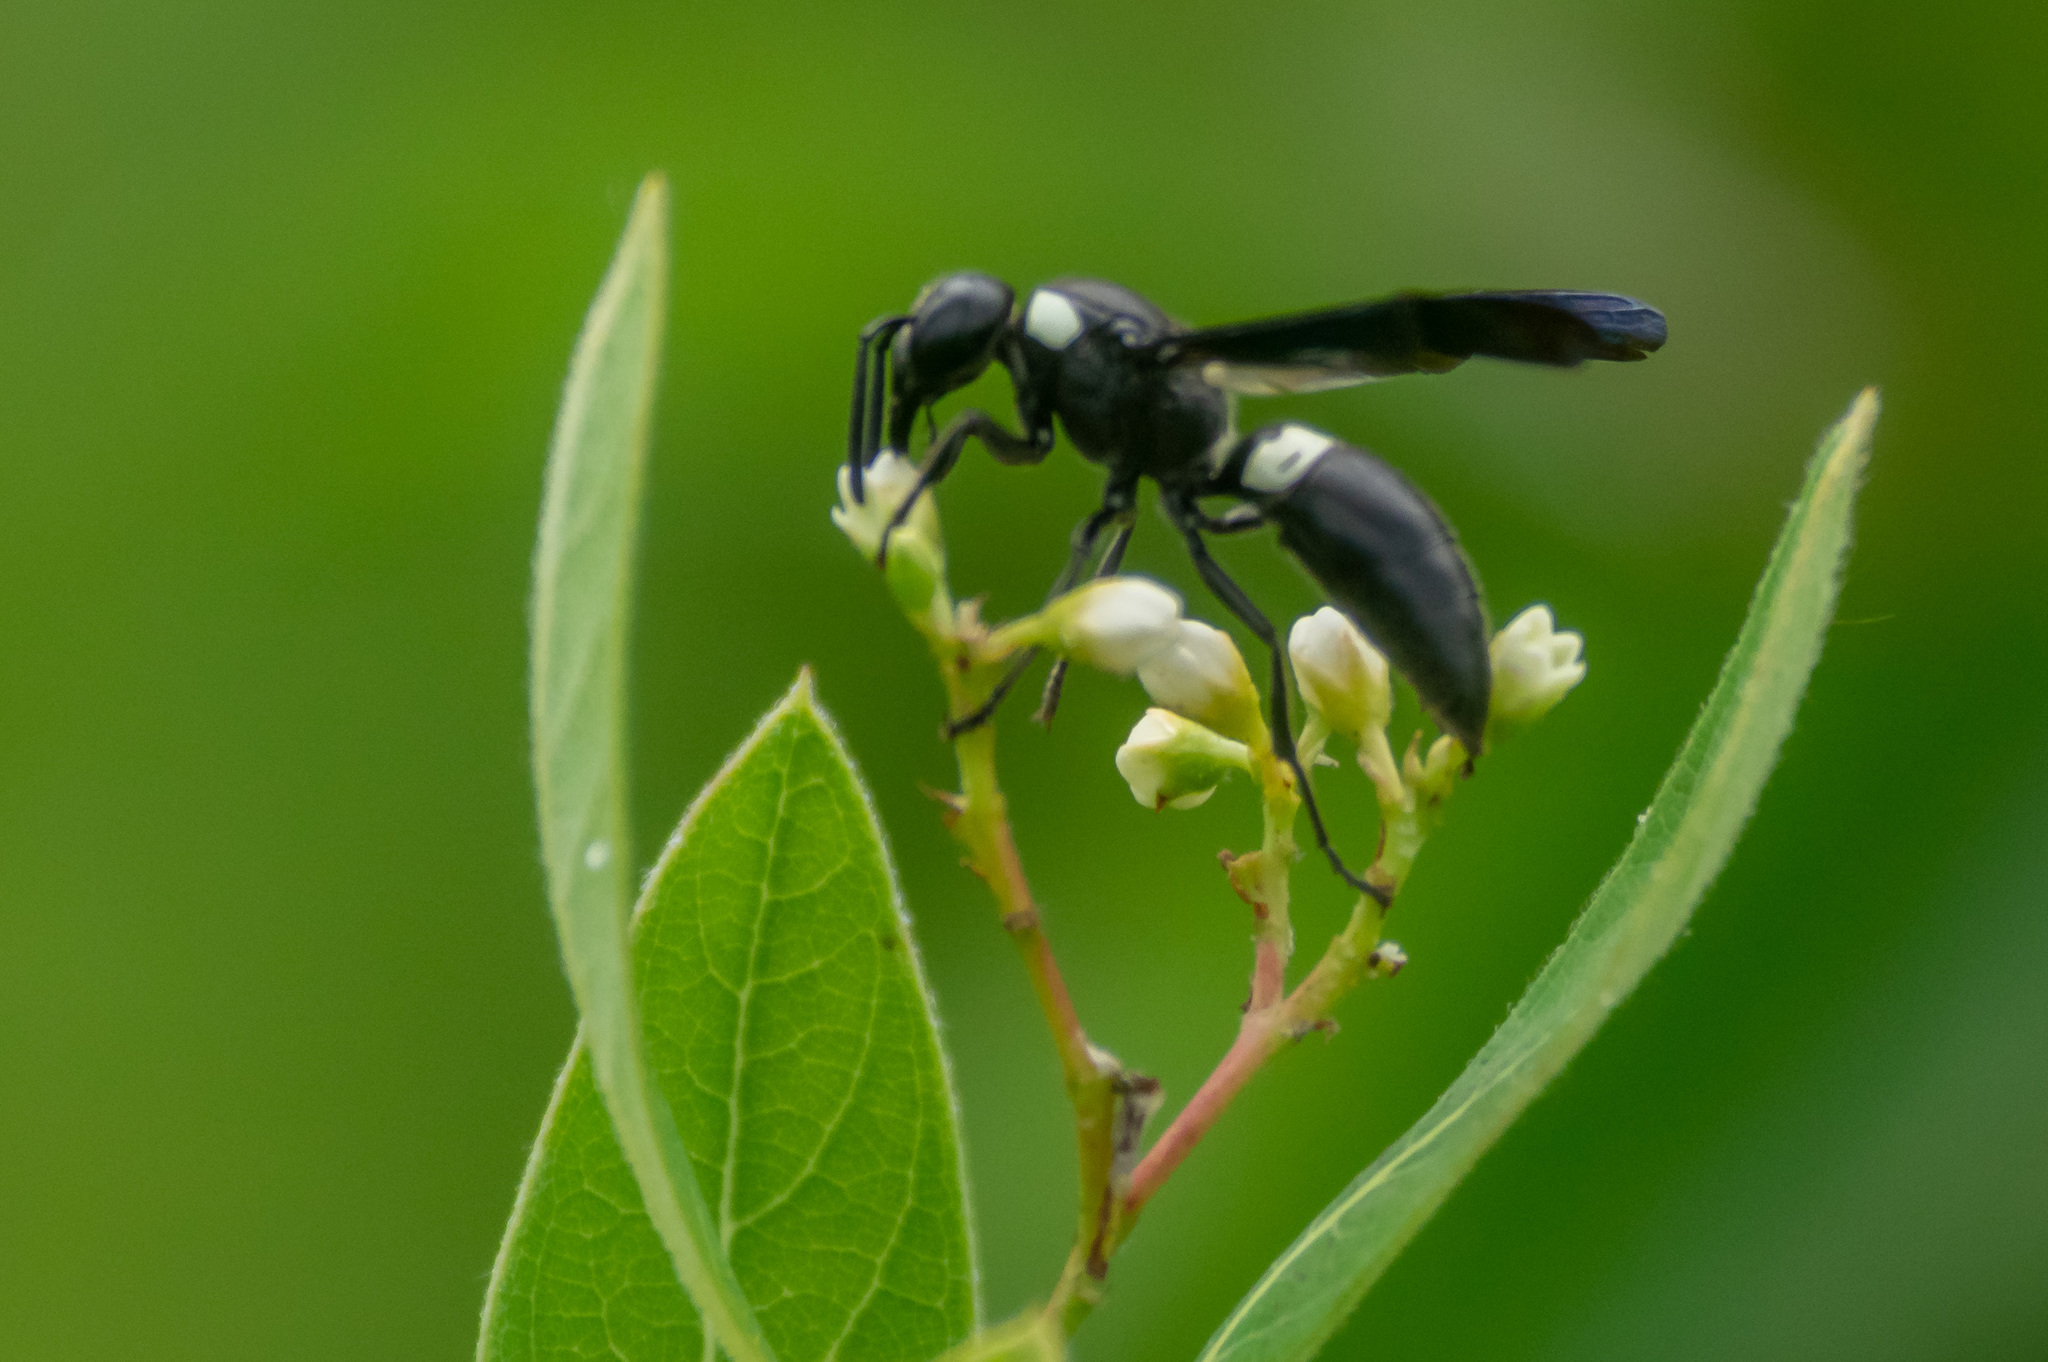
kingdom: Animalia
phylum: Arthropoda
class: Insecta
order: Hymenoptera
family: Eumenidae
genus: Monobia
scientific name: Monobia quadridens
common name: Four-toothed mason wasp
